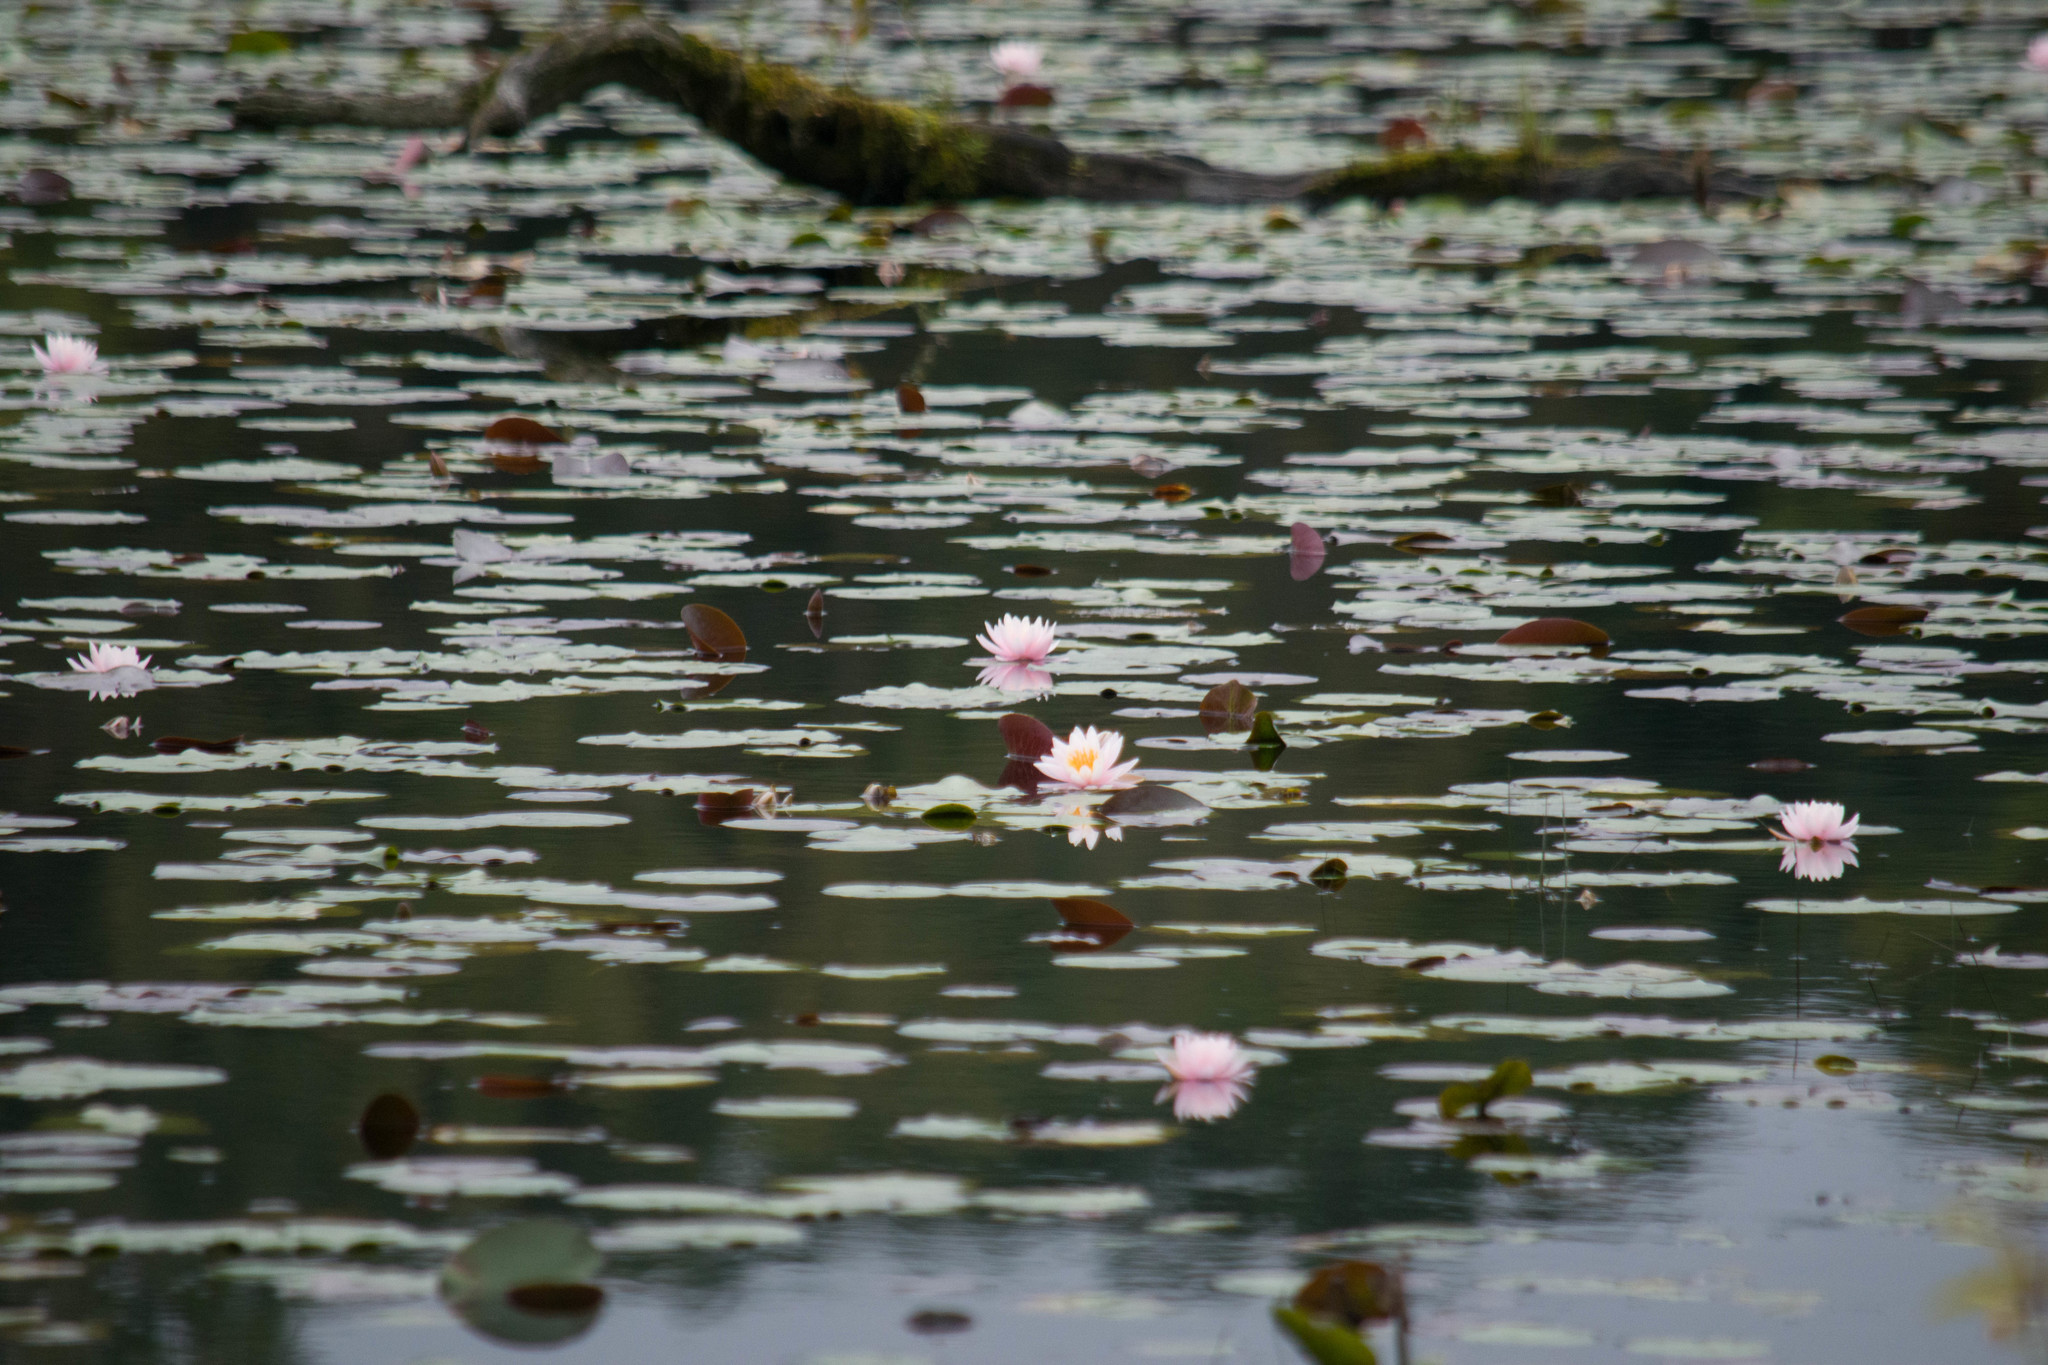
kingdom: Plantae
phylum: Tracheophyta
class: Magnoliopsida
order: Nymphaeales
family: Nymphaeaceae
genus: Nymphaea
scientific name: Nymphaea odorata
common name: Fragrant water-lily
